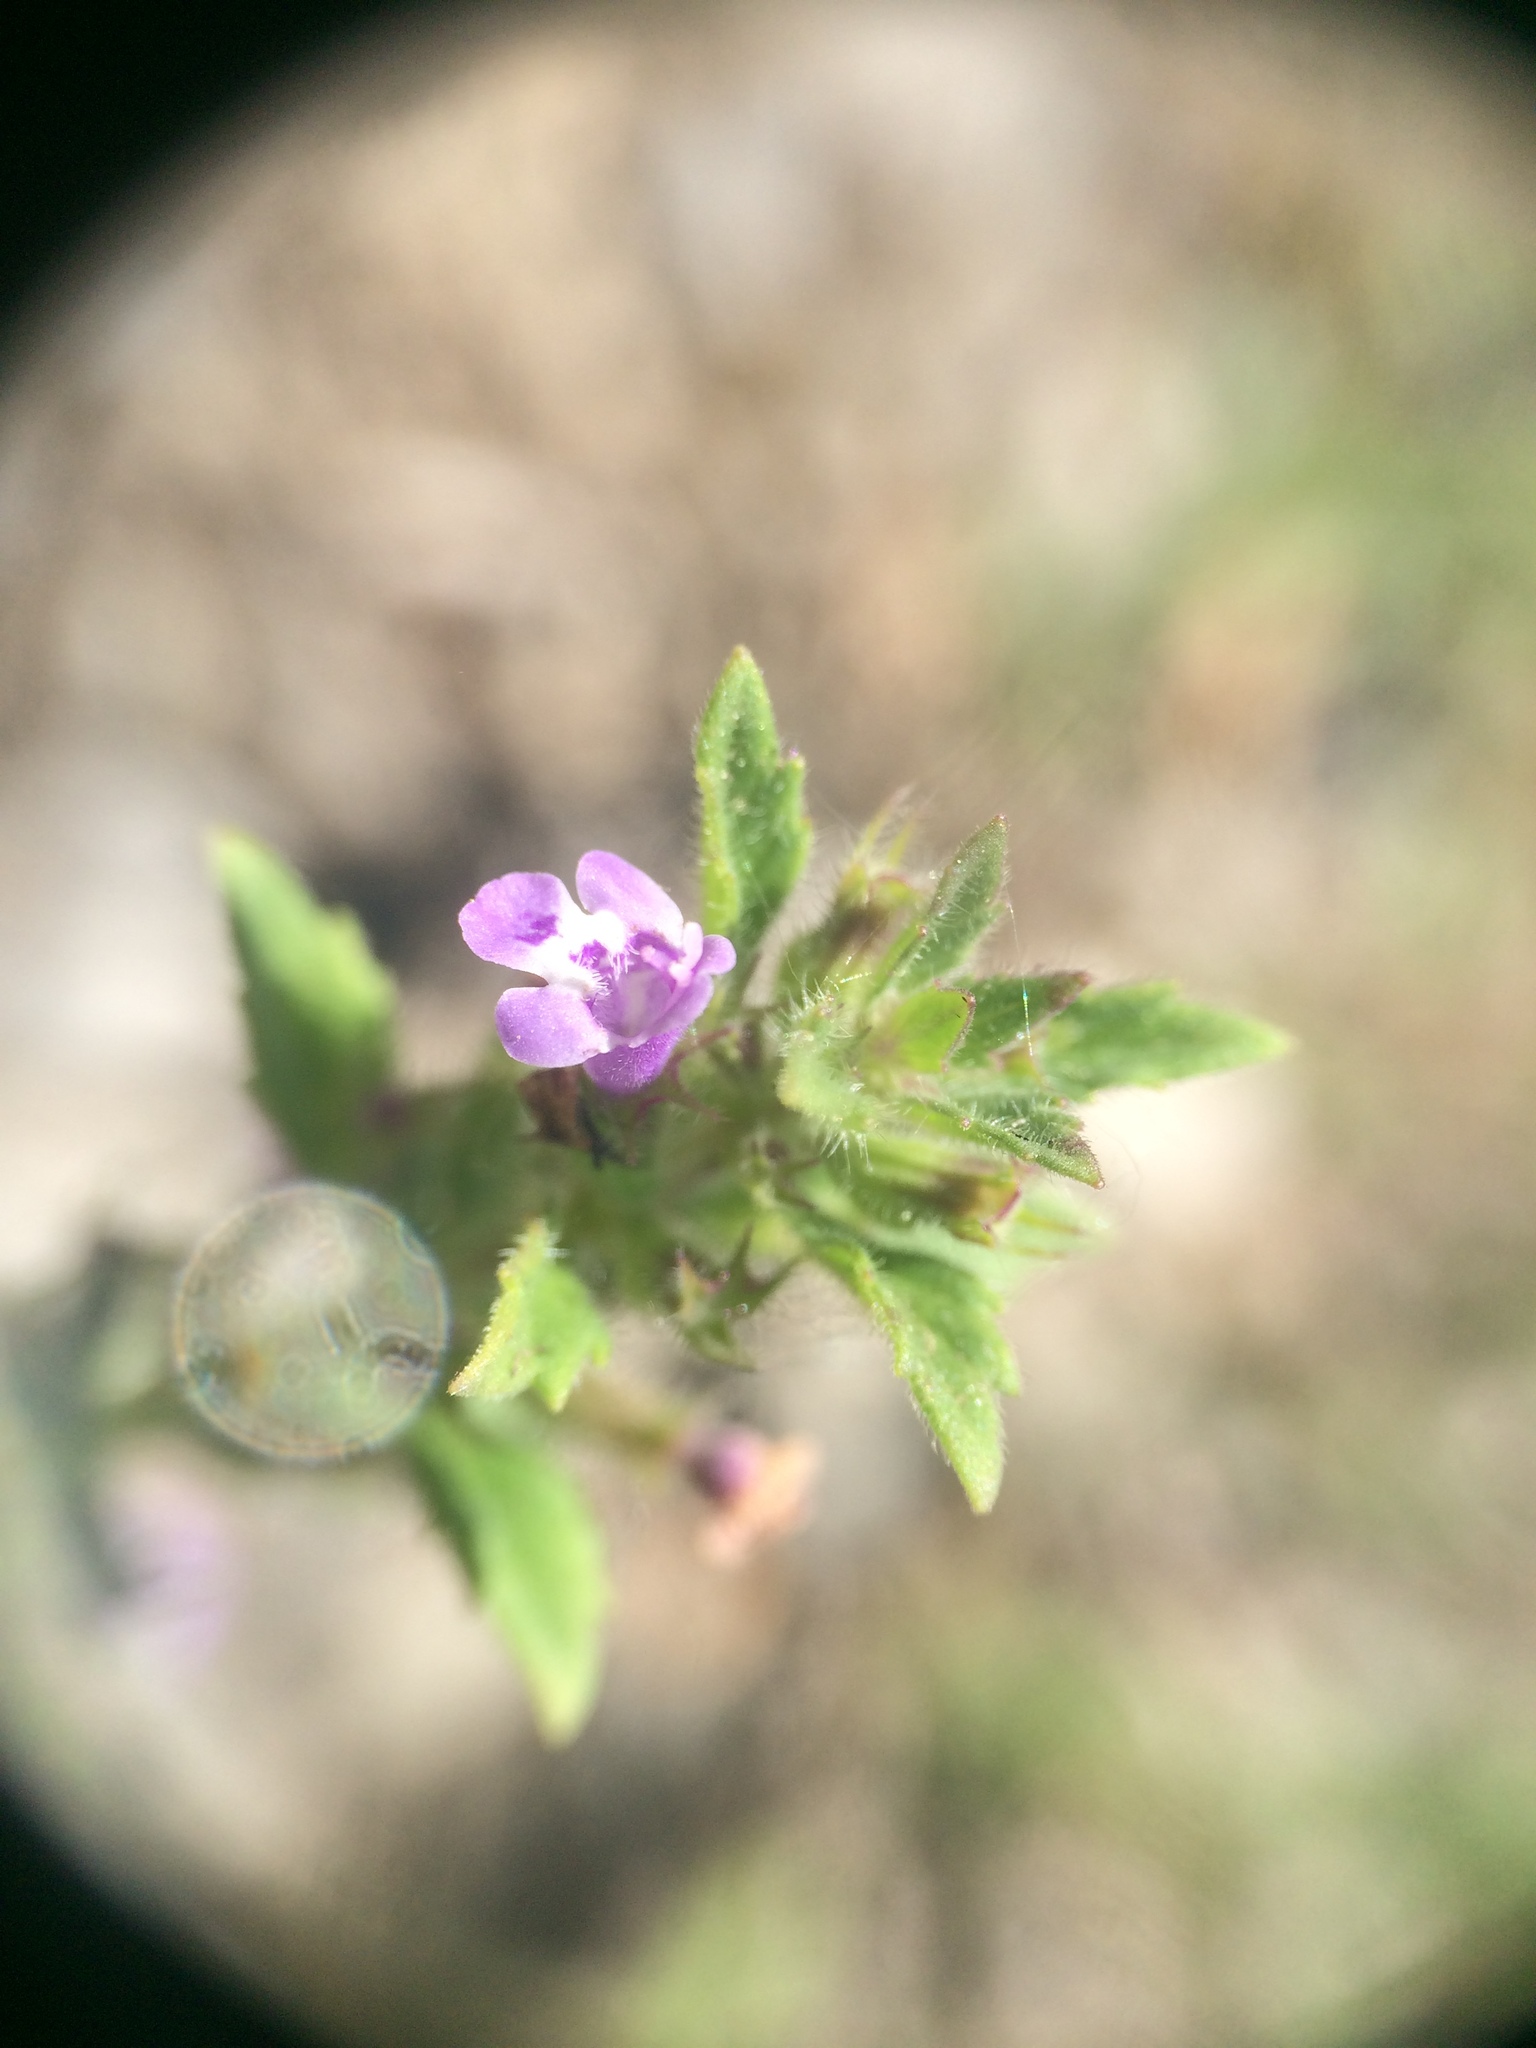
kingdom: Plantae
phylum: Tracheophyta
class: Magnoliopsida
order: Lamiales
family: Lamiaceae
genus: Clinopodium
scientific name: Clinopodium acinos
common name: Basil thyme
